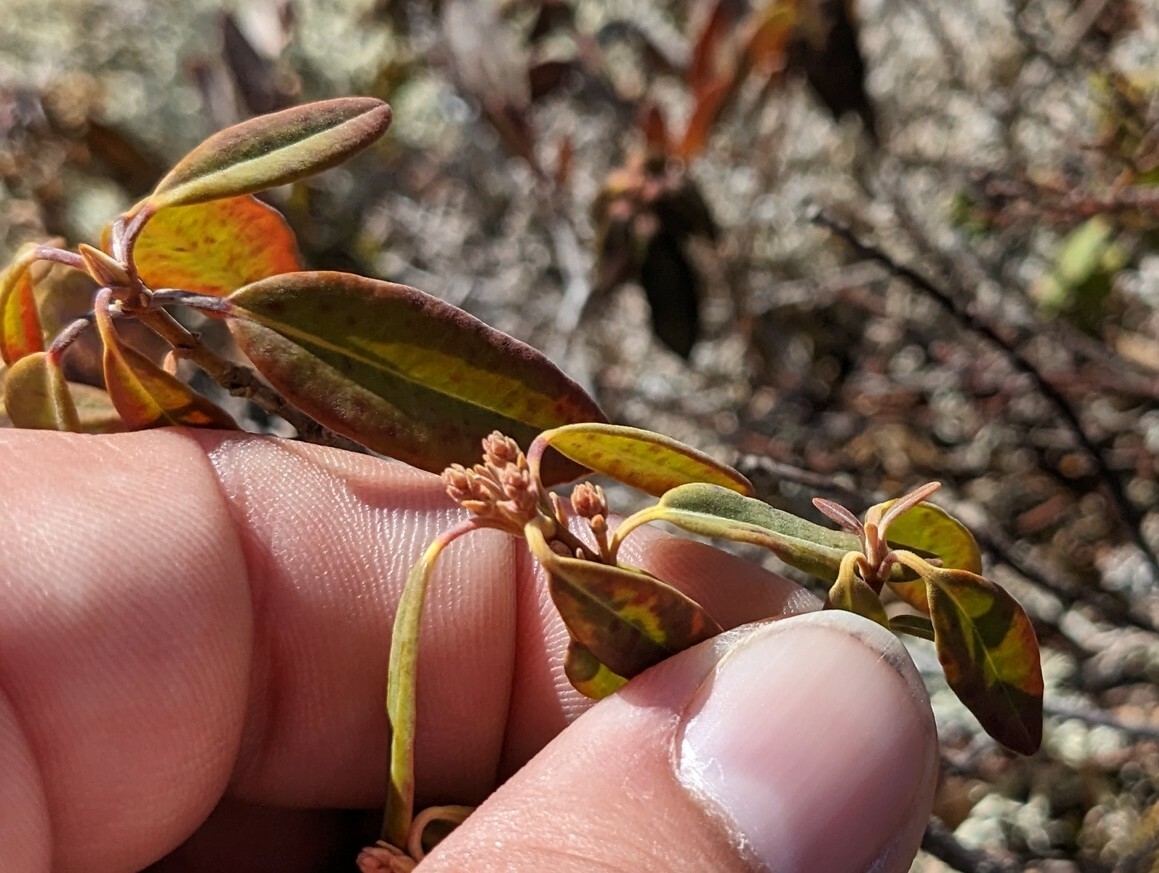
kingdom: Plantae
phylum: Tracheophyta
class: Magnoliopsida
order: Ericales
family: Ericaceae
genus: Kalmia
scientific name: Kalmia angustifolia
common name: Sheep-laurel
